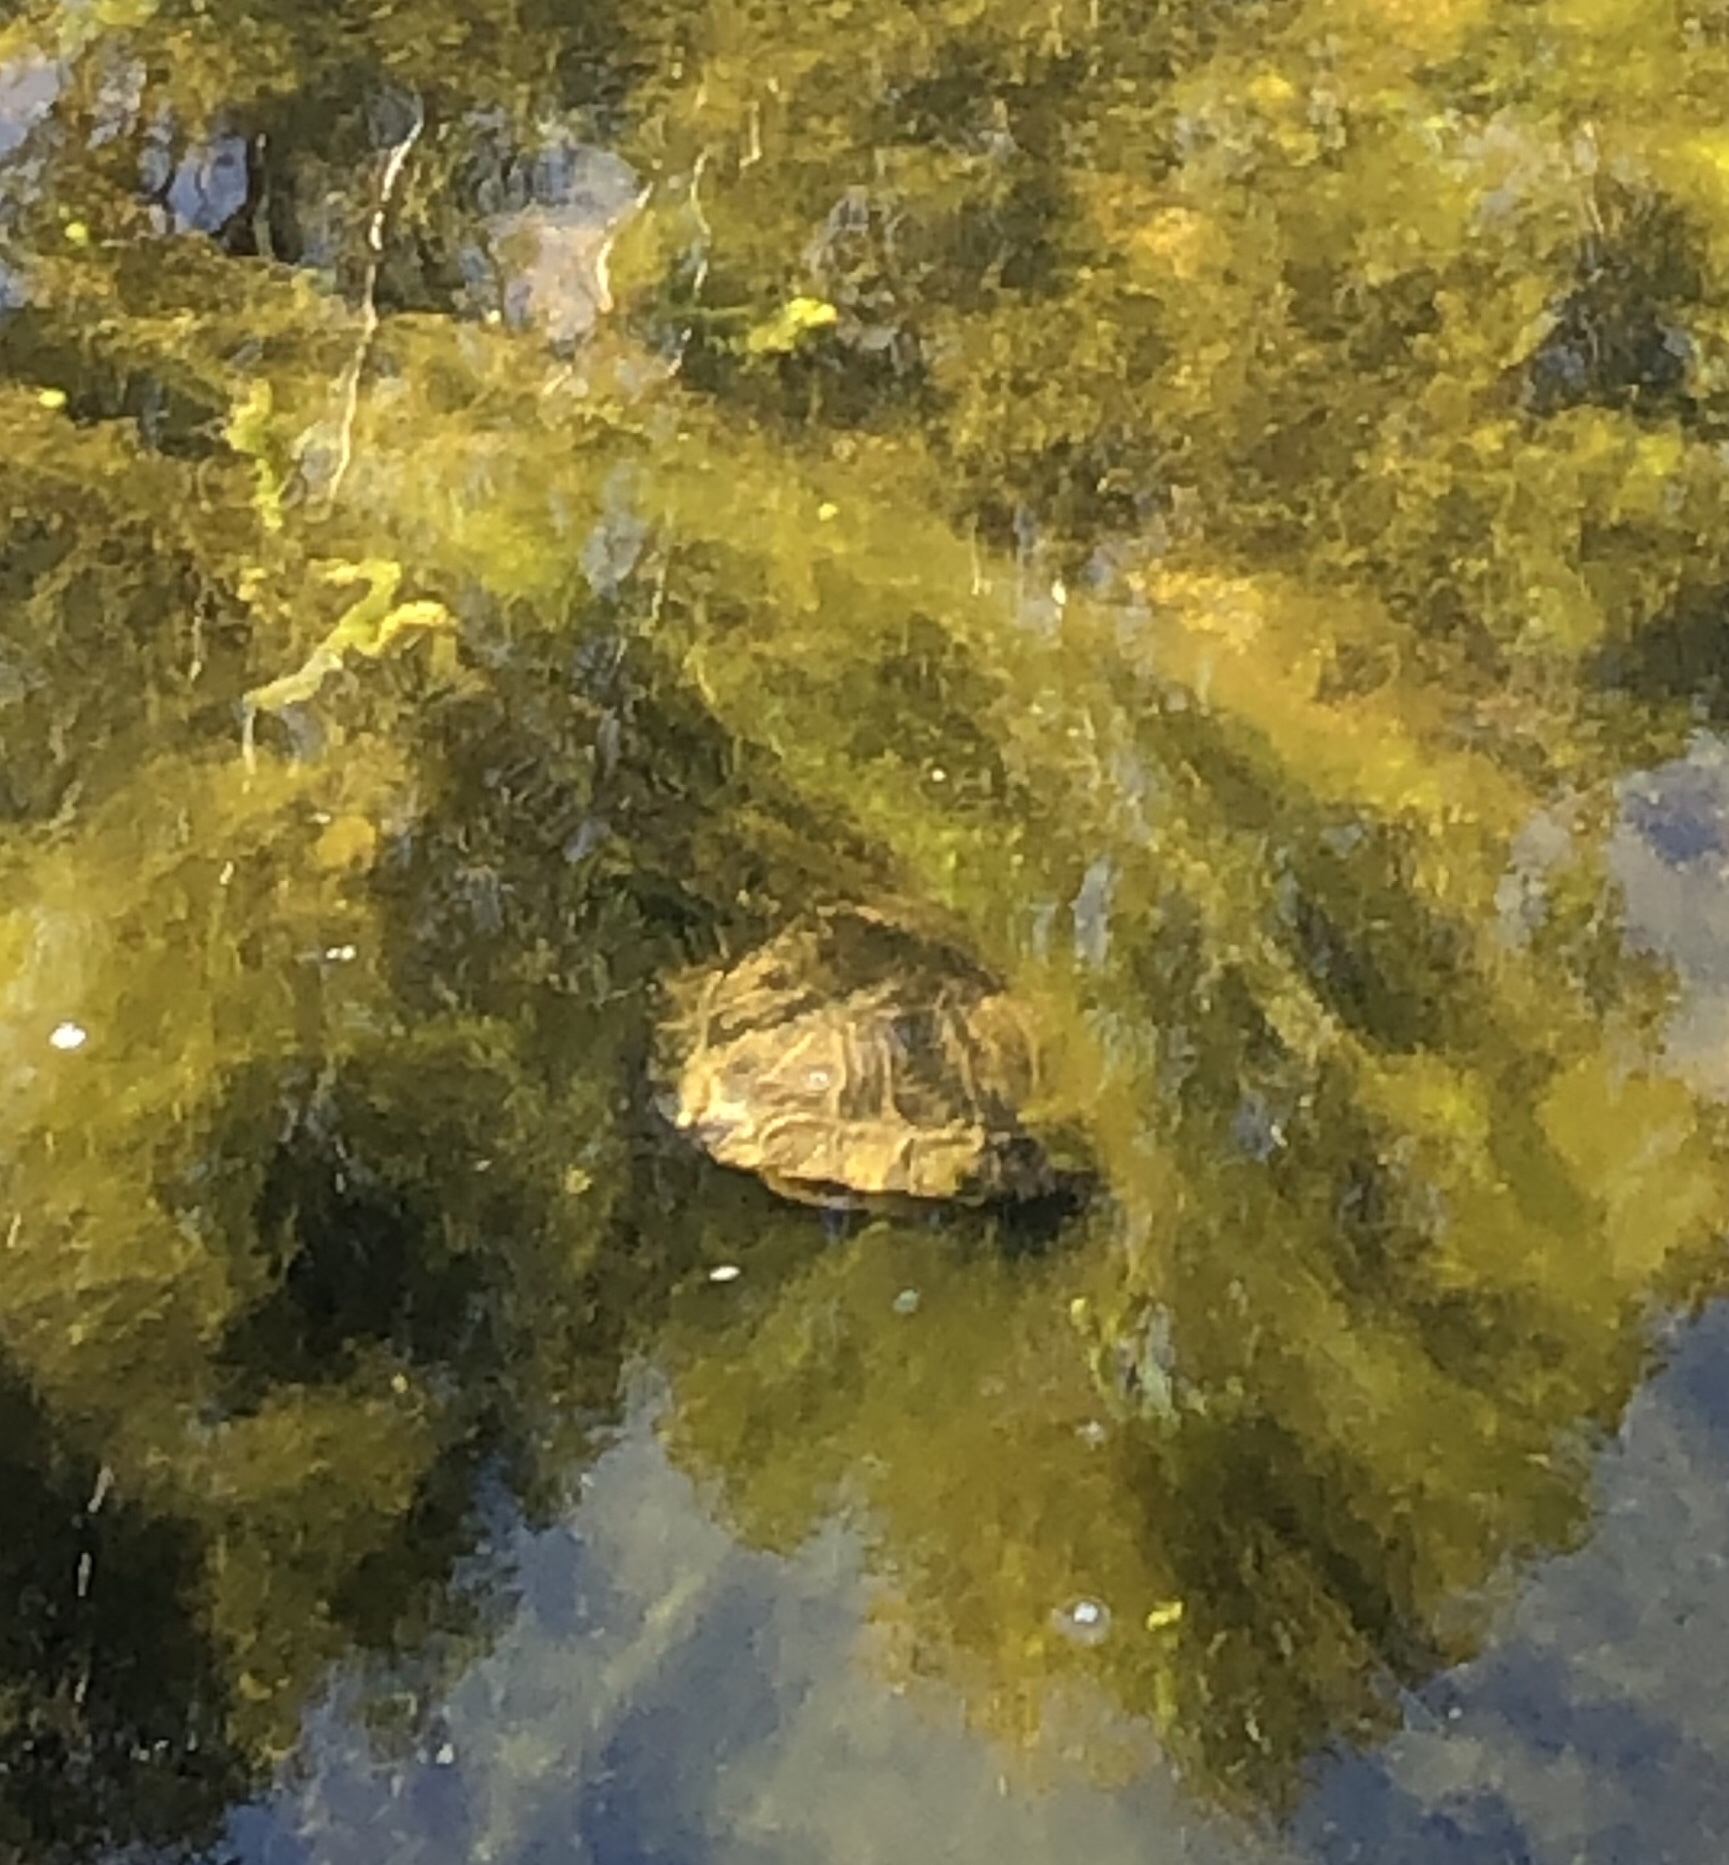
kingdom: Animalia
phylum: Chordata
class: Testudines
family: Emydidae
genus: Trachemys
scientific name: Trachemys scripta
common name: Slider
